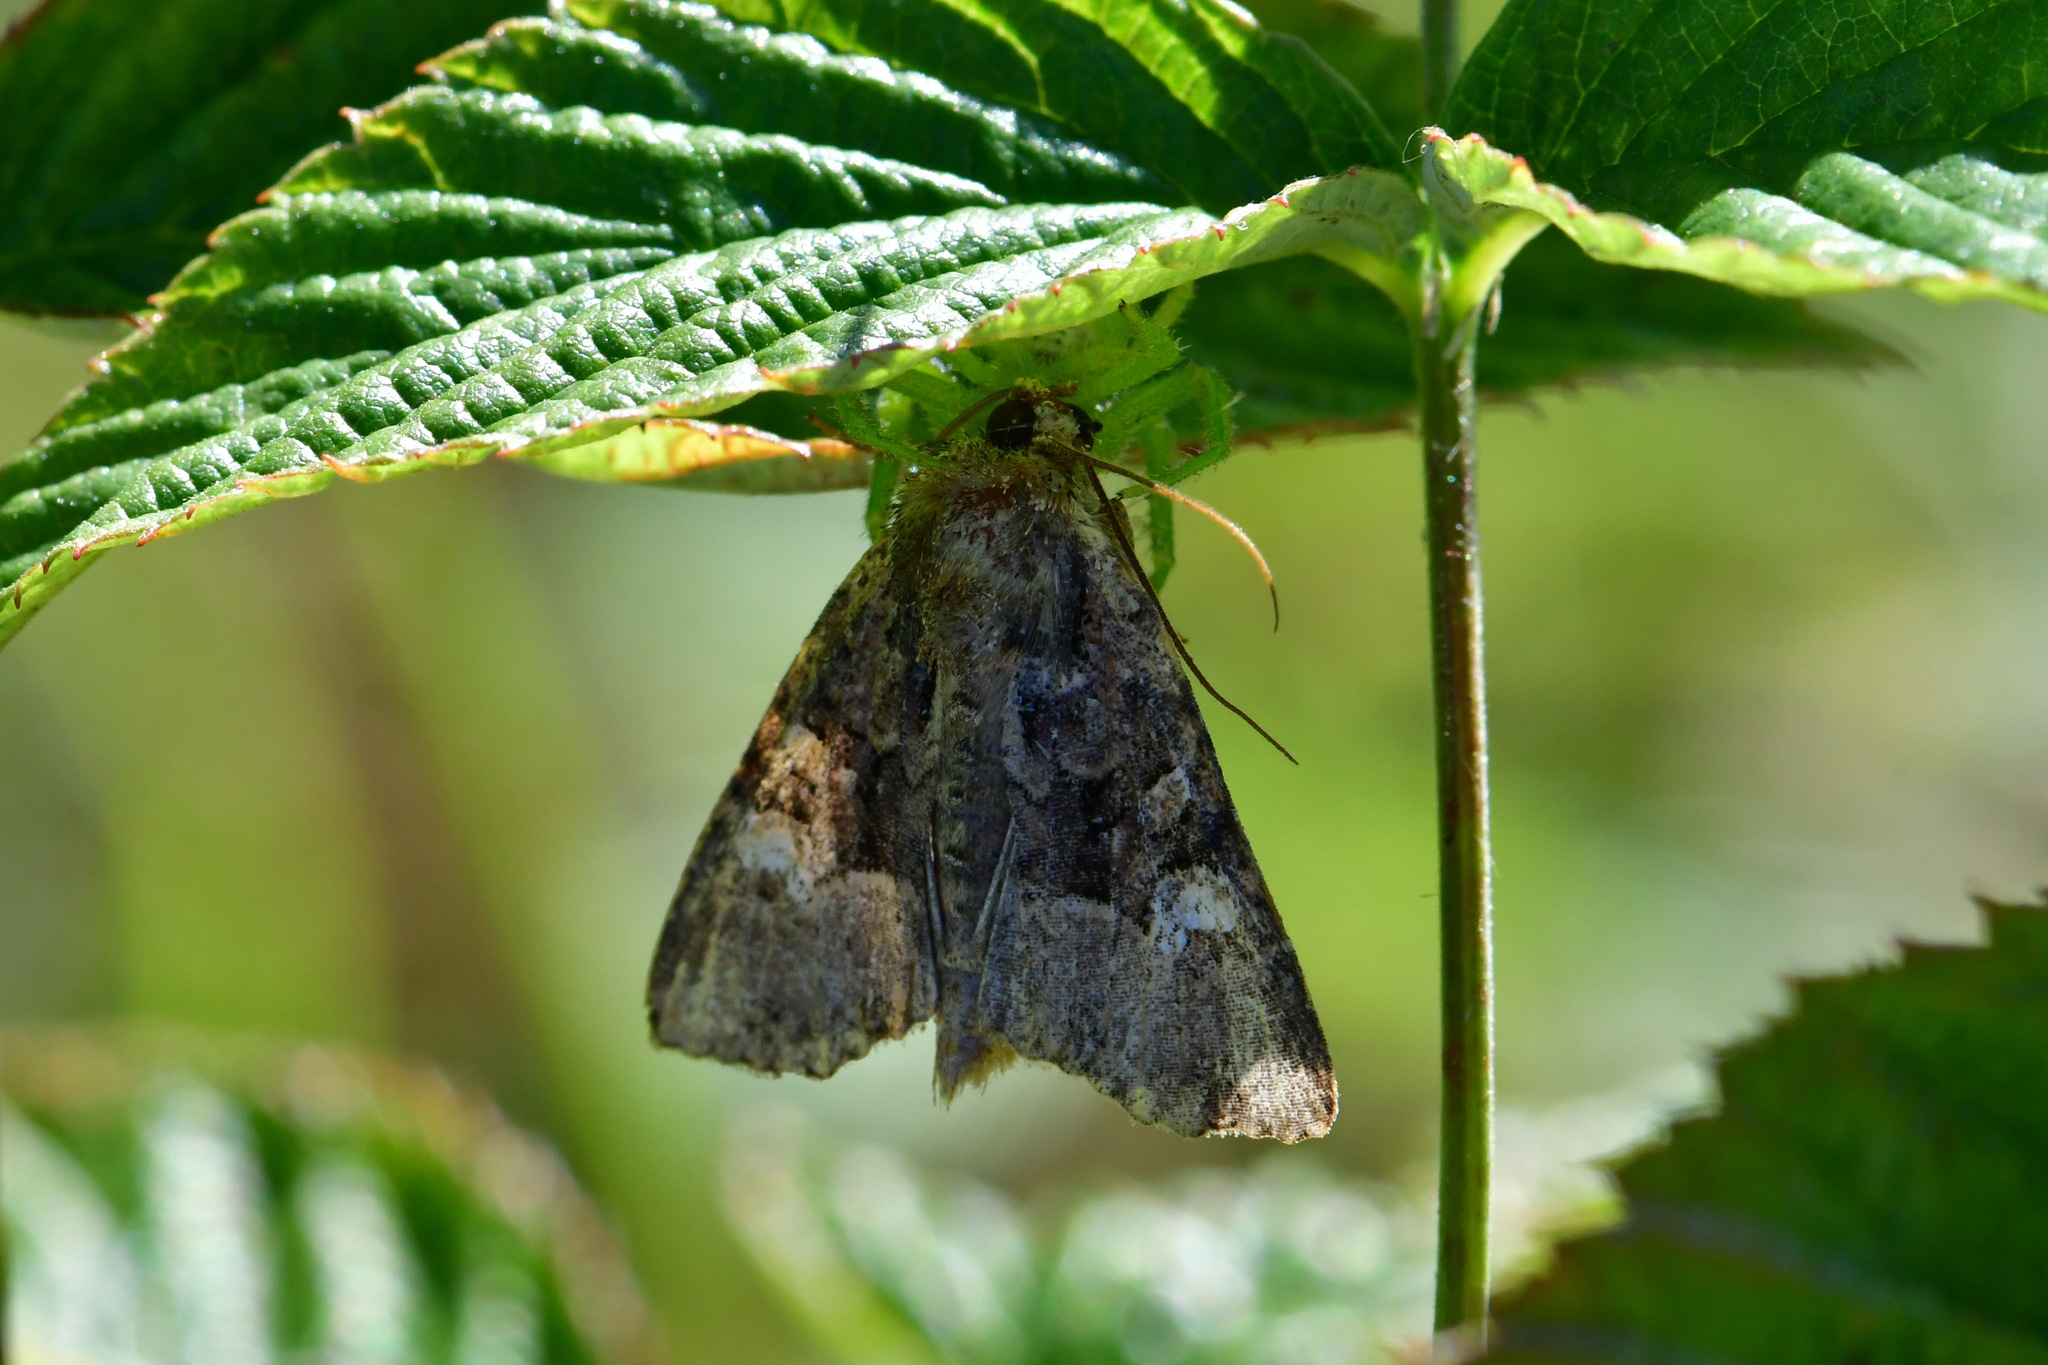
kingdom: Animalia
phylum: Arthropoda
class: Insecta
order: Lepidoptera
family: Noctuidae
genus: Mesoligia
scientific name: Mesoligia furuncula
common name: Cloaked minor
